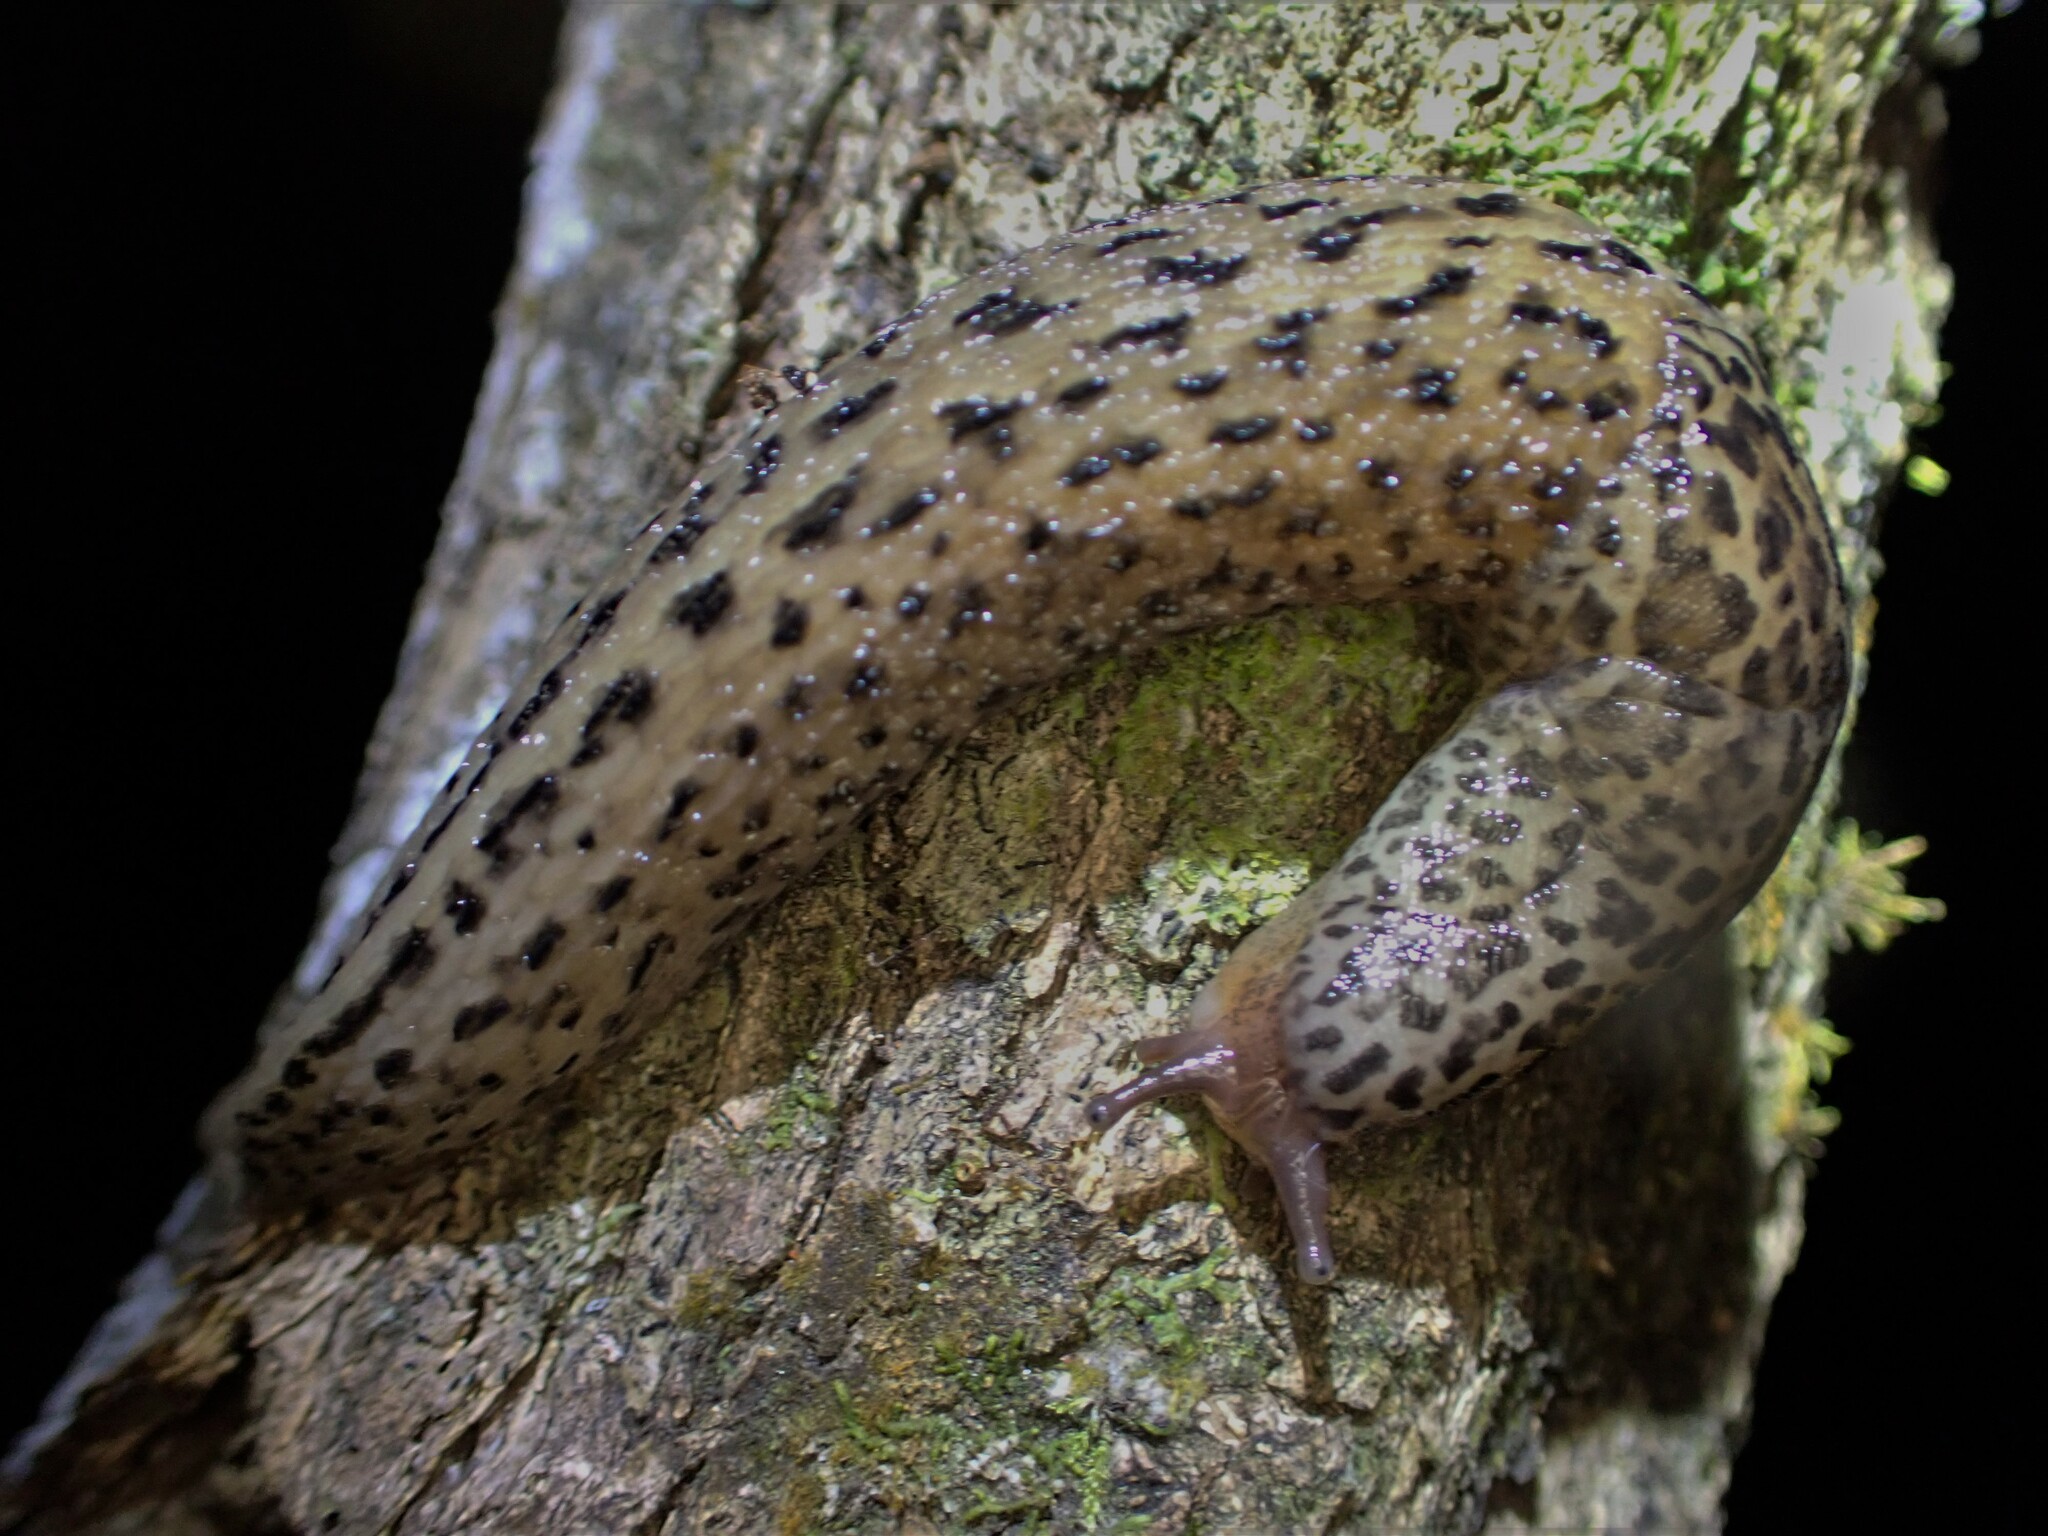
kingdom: Animalia
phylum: Mollusca
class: Gastropoda
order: Stylommatophora
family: Limacidae
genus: Limax
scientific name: Limax maximus
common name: Great grey slug
